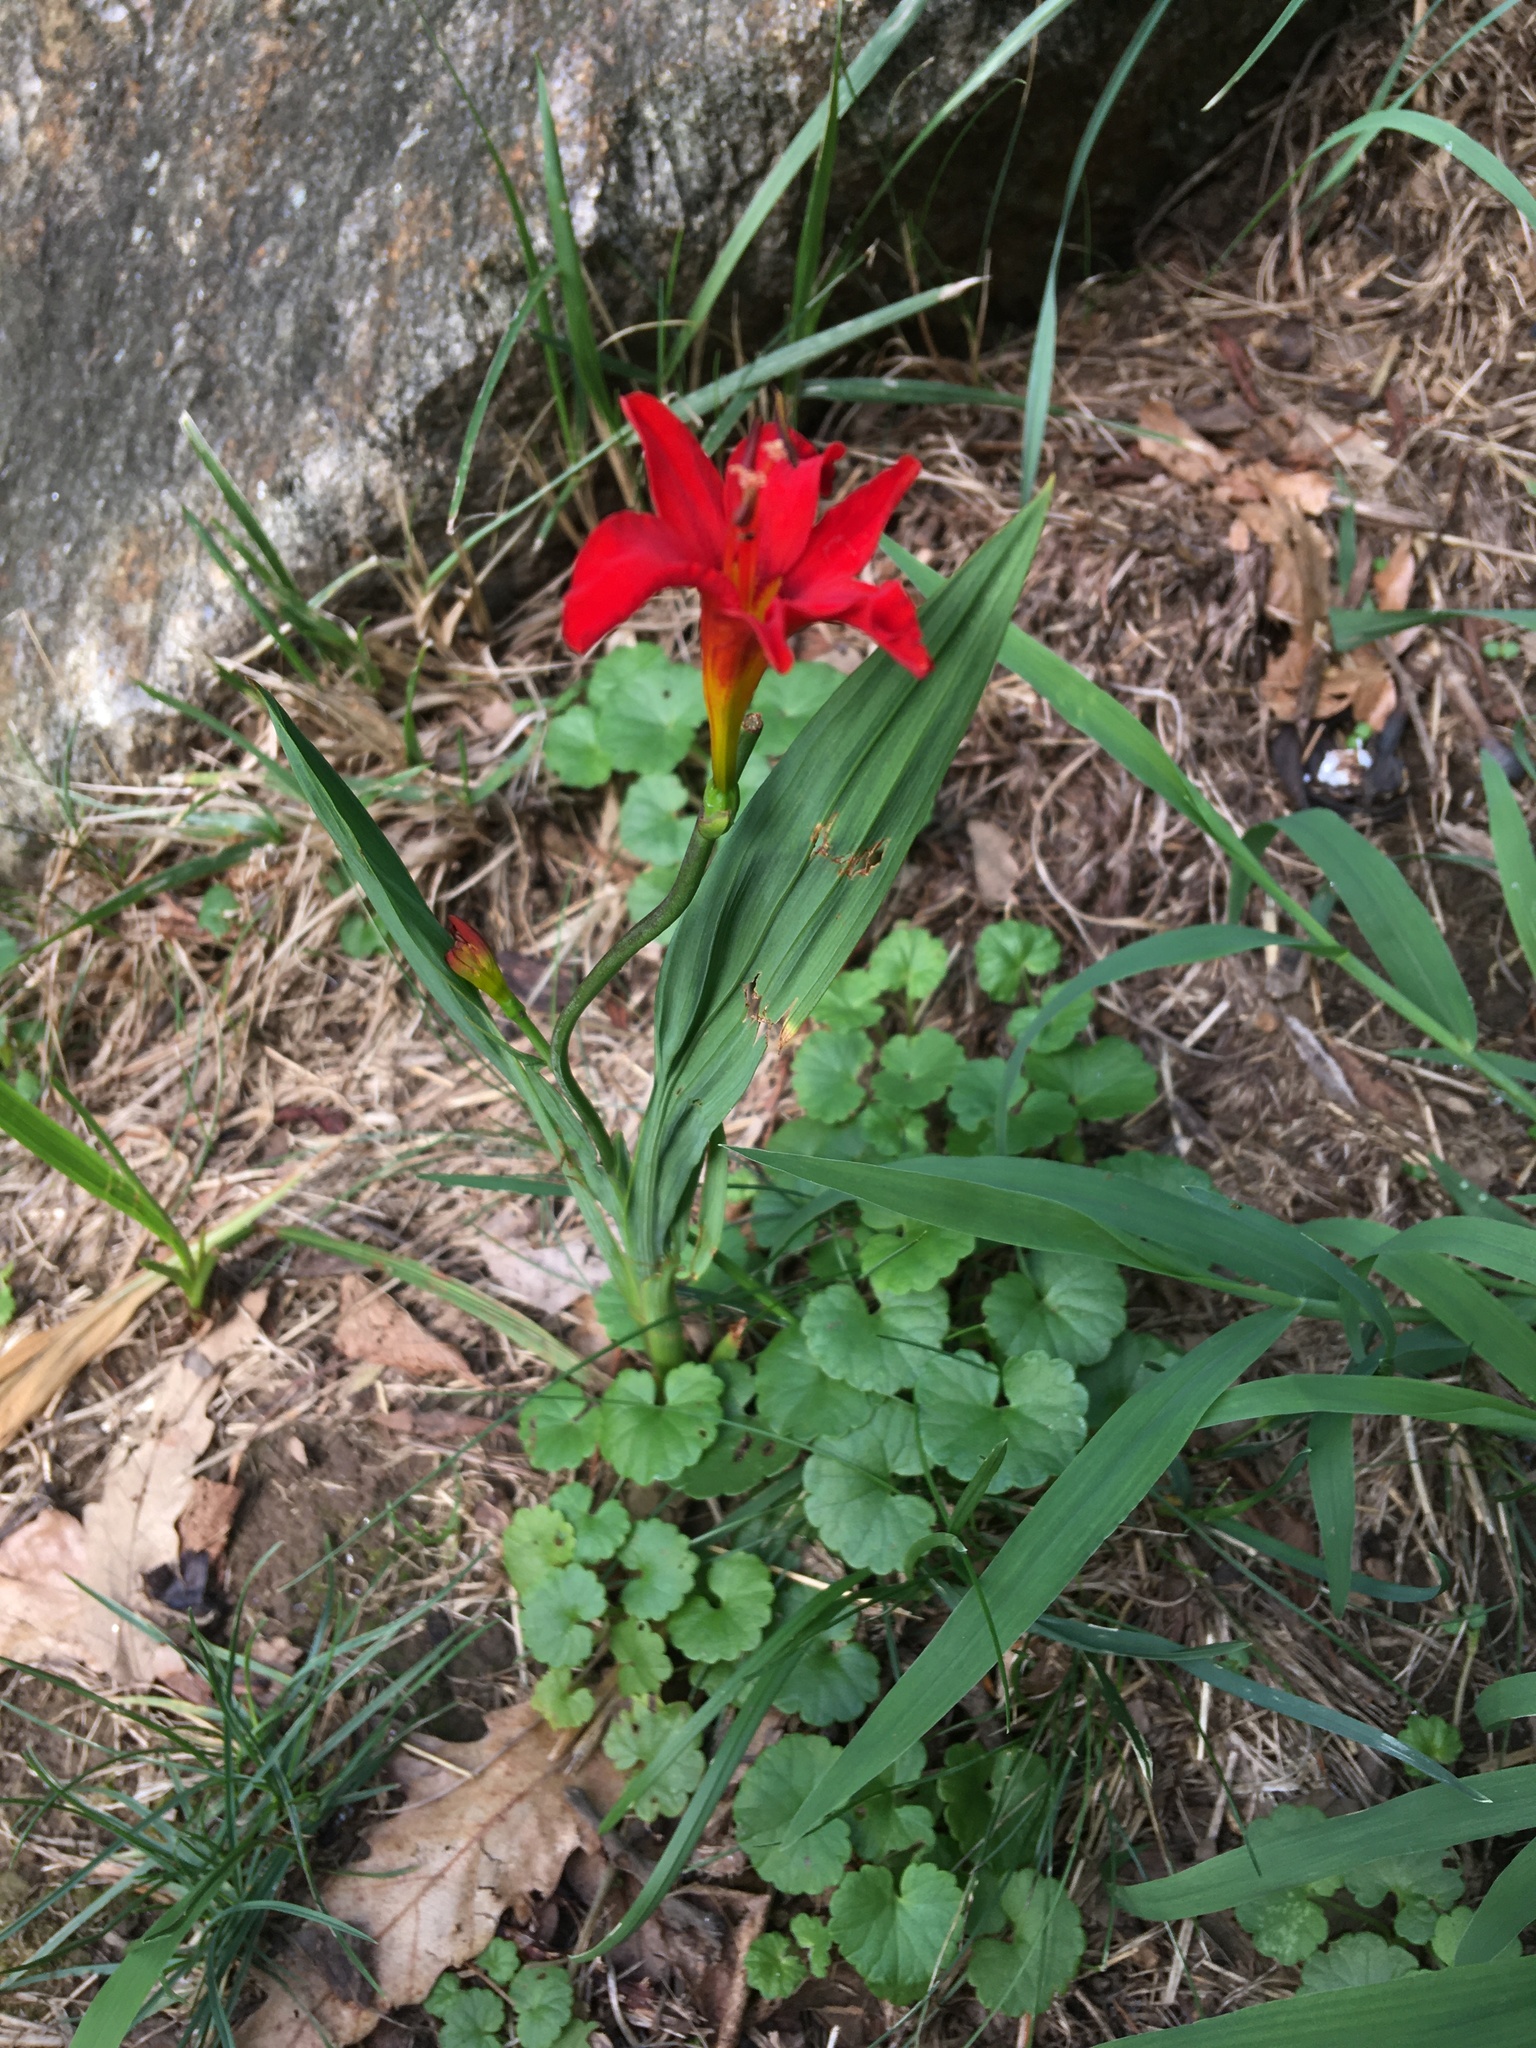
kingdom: Plantae
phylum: Tracheophyta
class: Liliopsida
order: Asparagales
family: Iridaceae
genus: Crocosmia
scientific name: Crocosmia
